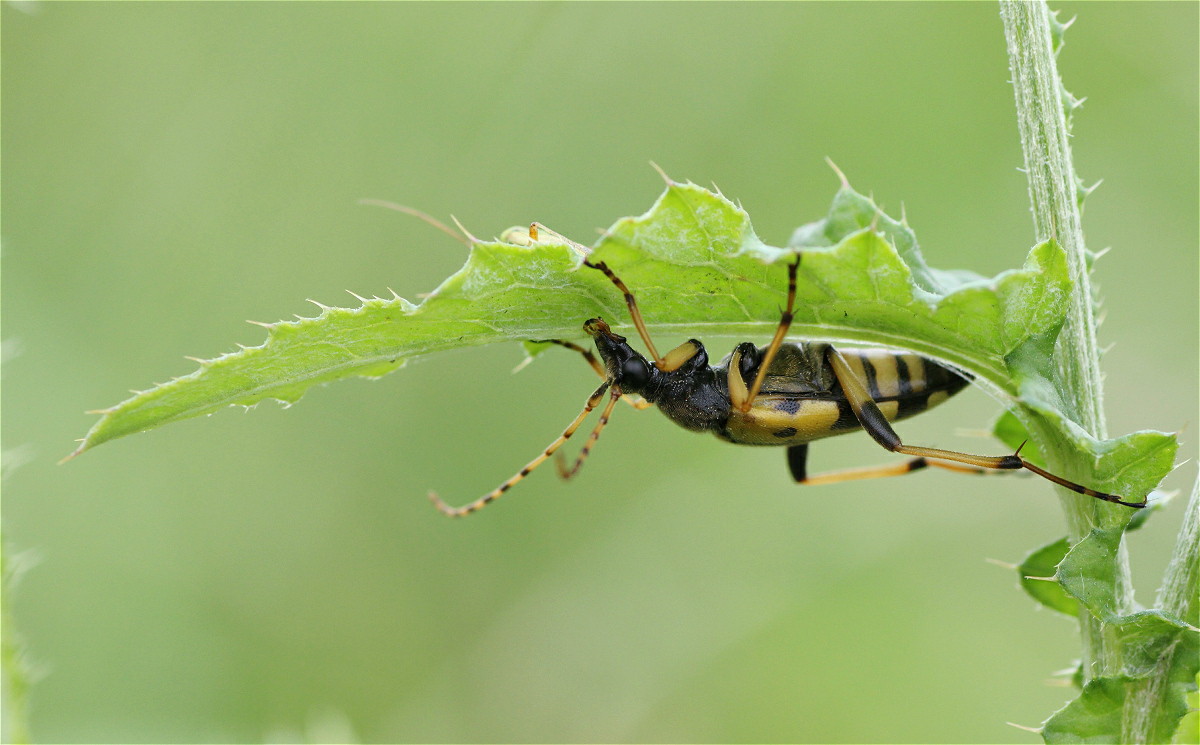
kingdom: Animalia
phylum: Arthropoda
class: Insecta
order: Coleoptera
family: Cerambycidae
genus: Rutpela
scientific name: Rutpela maculata
